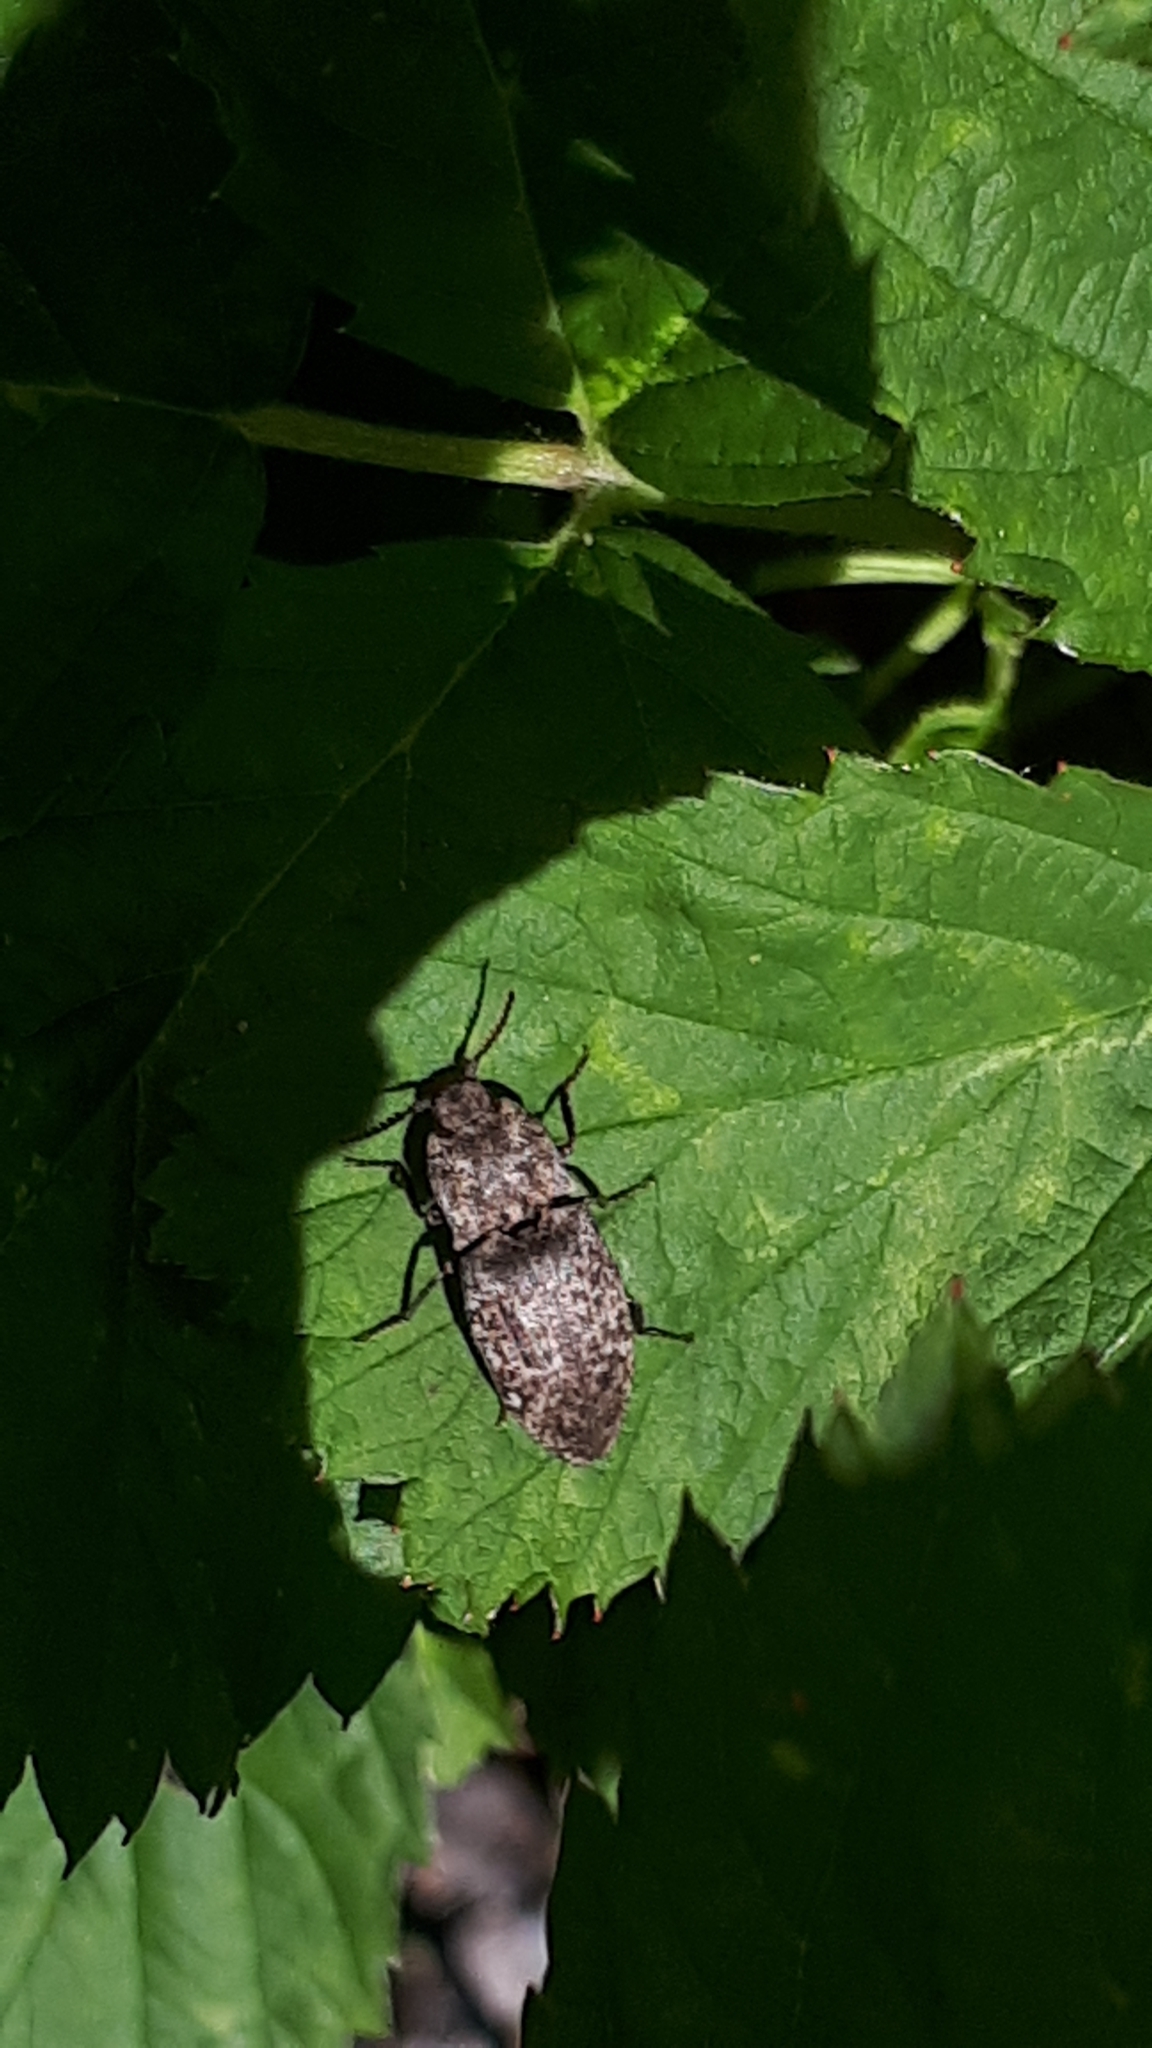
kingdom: Animalia
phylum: Arthropoda
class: Insecta
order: Coleoptera
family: Elateridae
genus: Agrypnus
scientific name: Agrypnus murinus
